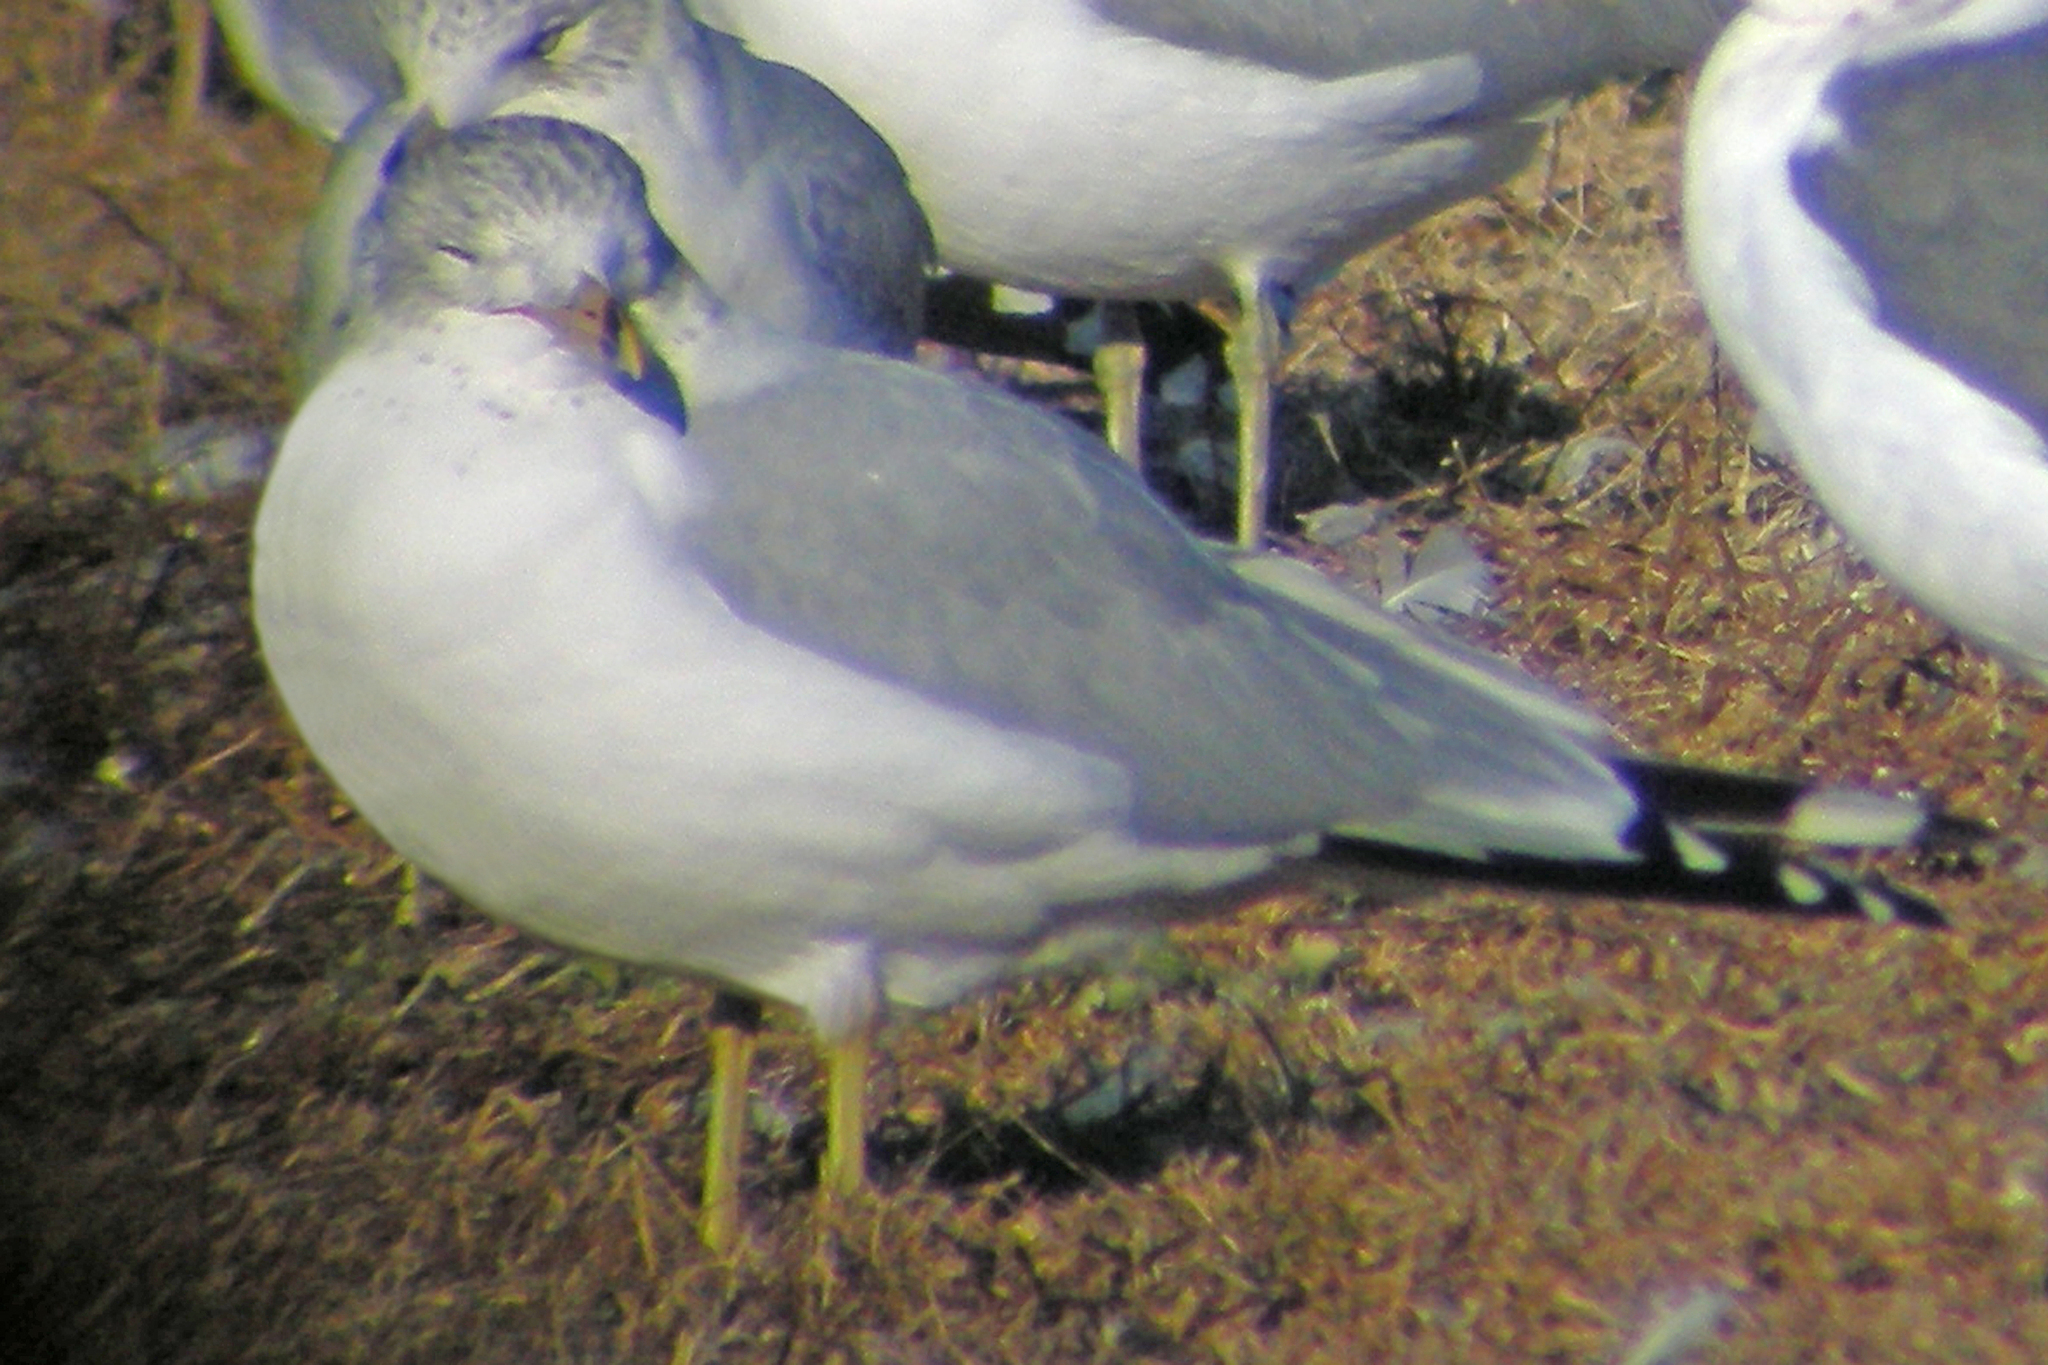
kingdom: Animalia
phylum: Chordata
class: Aves
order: Charadriiformes
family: Laridae
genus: Larus
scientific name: Larus delawarensis
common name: Ring-billed gull
